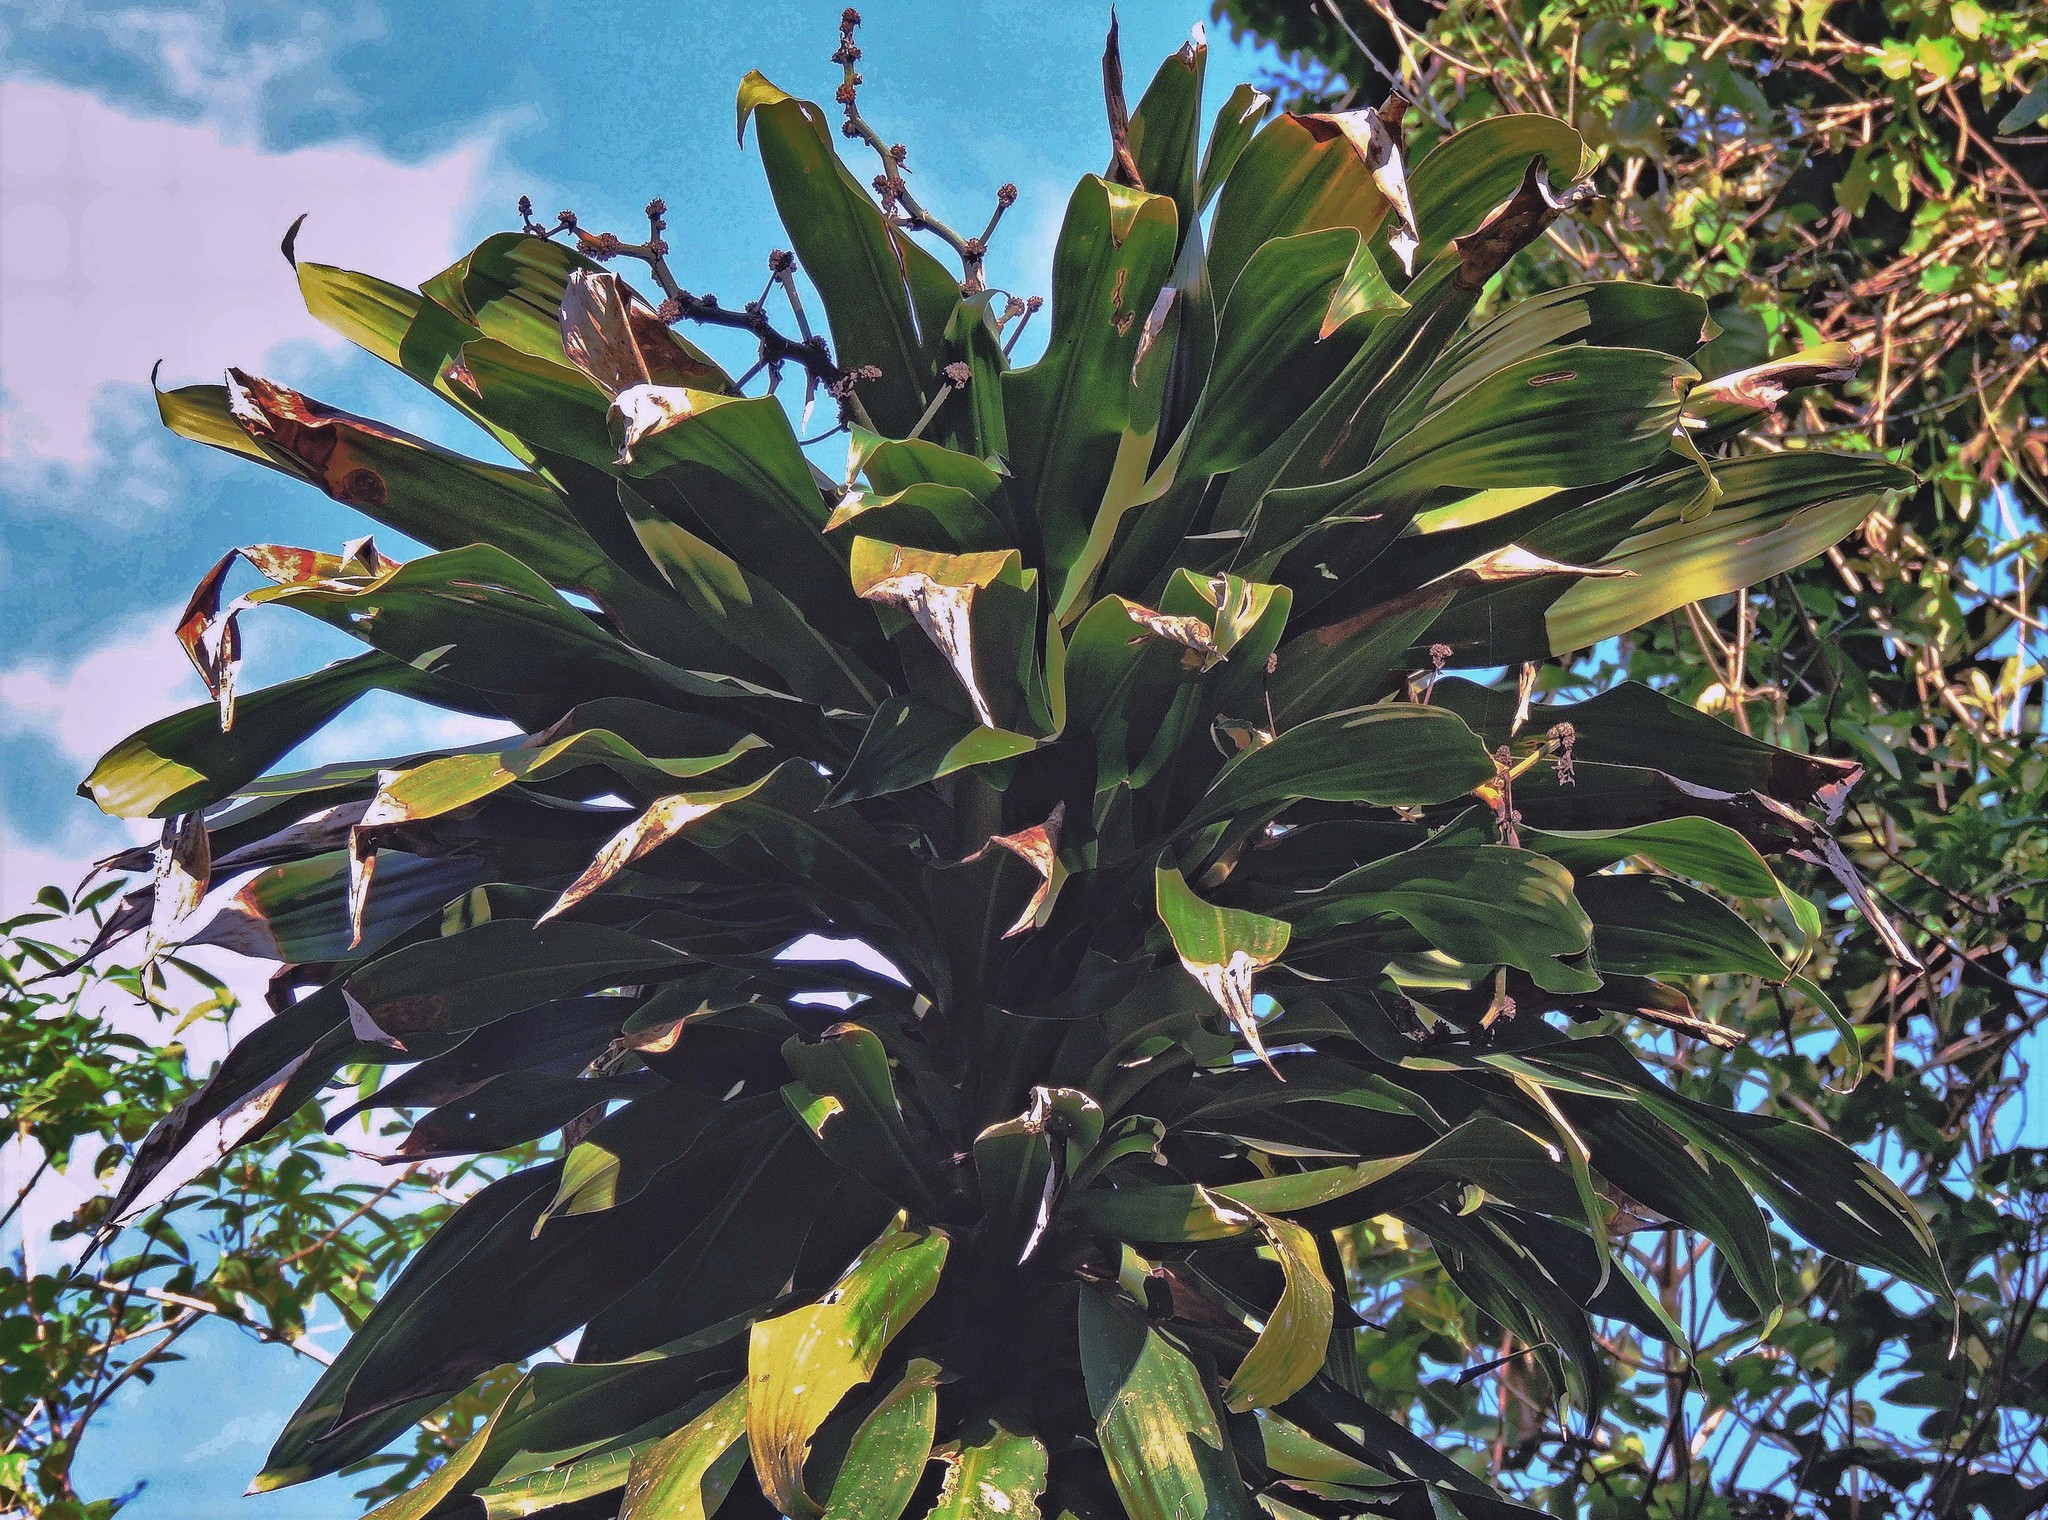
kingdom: Plantae
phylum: Tracheophyta
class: Liliopsida
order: Asparagales
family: Asparagaceae
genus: Dracaena
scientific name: Dracaena fragrans
